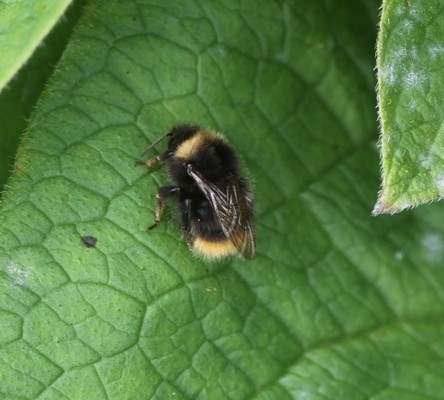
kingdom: Animalia
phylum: Arthropoda
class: Insecta
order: Hymenoptera
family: Apidae
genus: Bombus
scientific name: Bombus pratorum
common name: Early humble-bee
